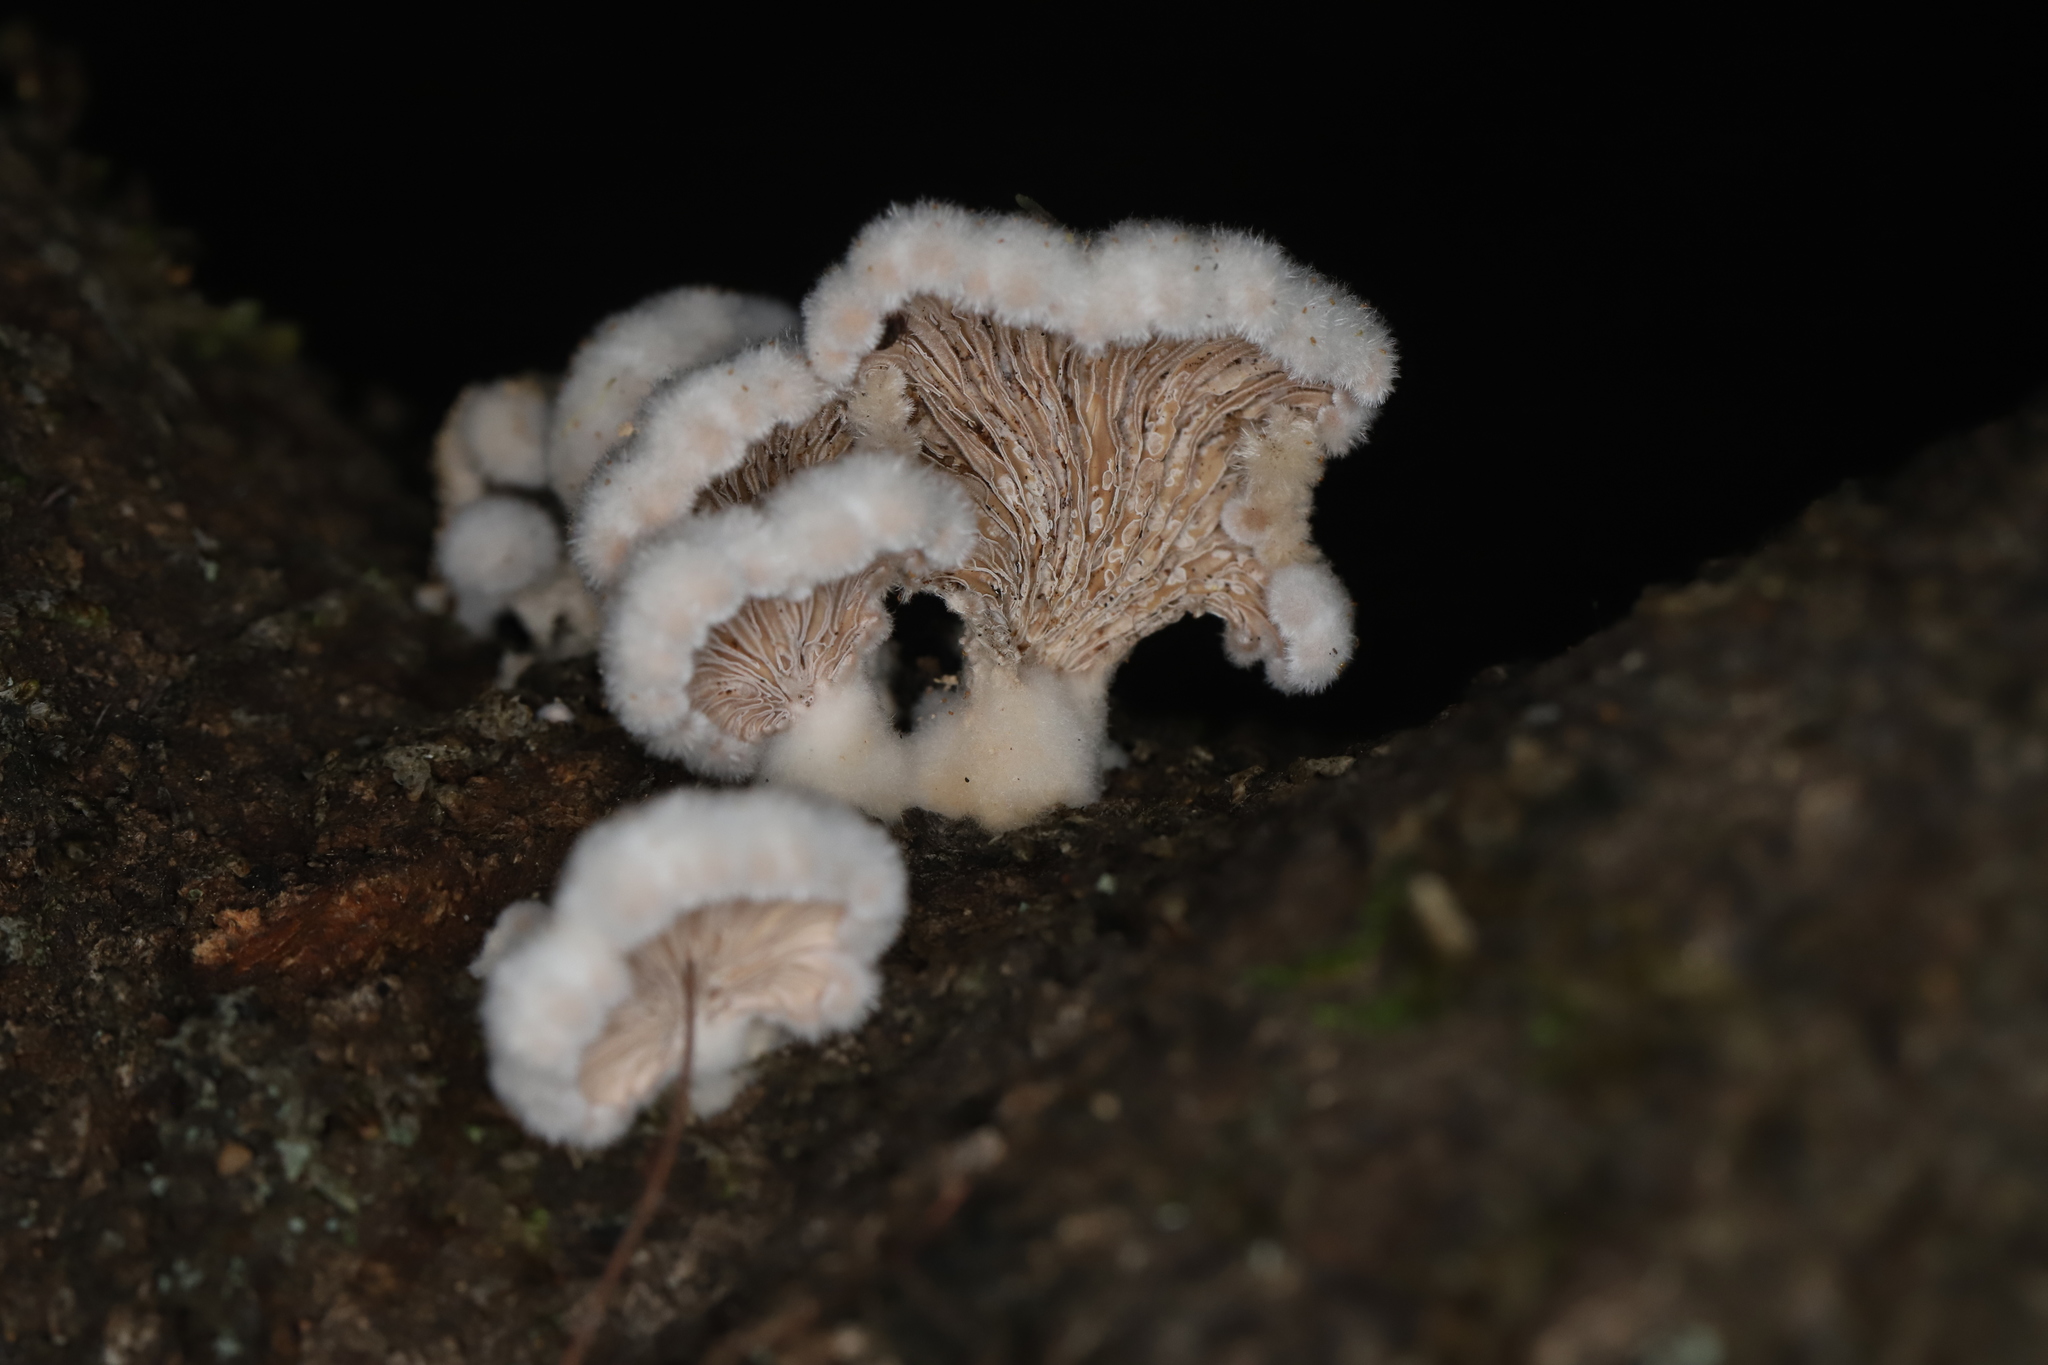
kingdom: Fungi
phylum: Basidiomycota
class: Agaricomycetes
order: Agaricales
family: Schizophyllaceae
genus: Schizophyllum
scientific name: Schizophyllum commune
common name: Common porecrust
